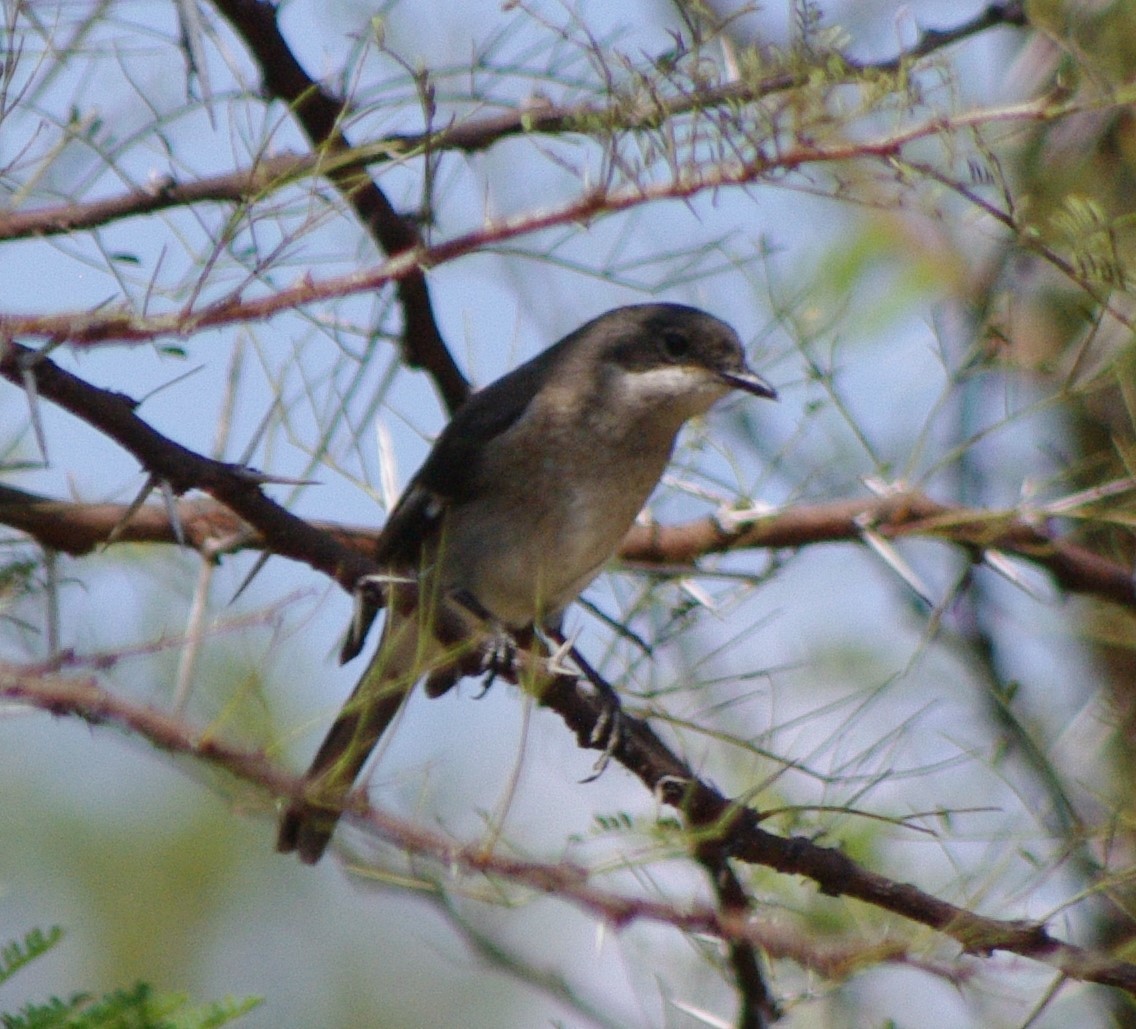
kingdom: Animalia
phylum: Chordata
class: Aves
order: Passeriformes
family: Muscicapidae
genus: Sigelus
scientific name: Sigelus silens
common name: Fiscal flycatcher
